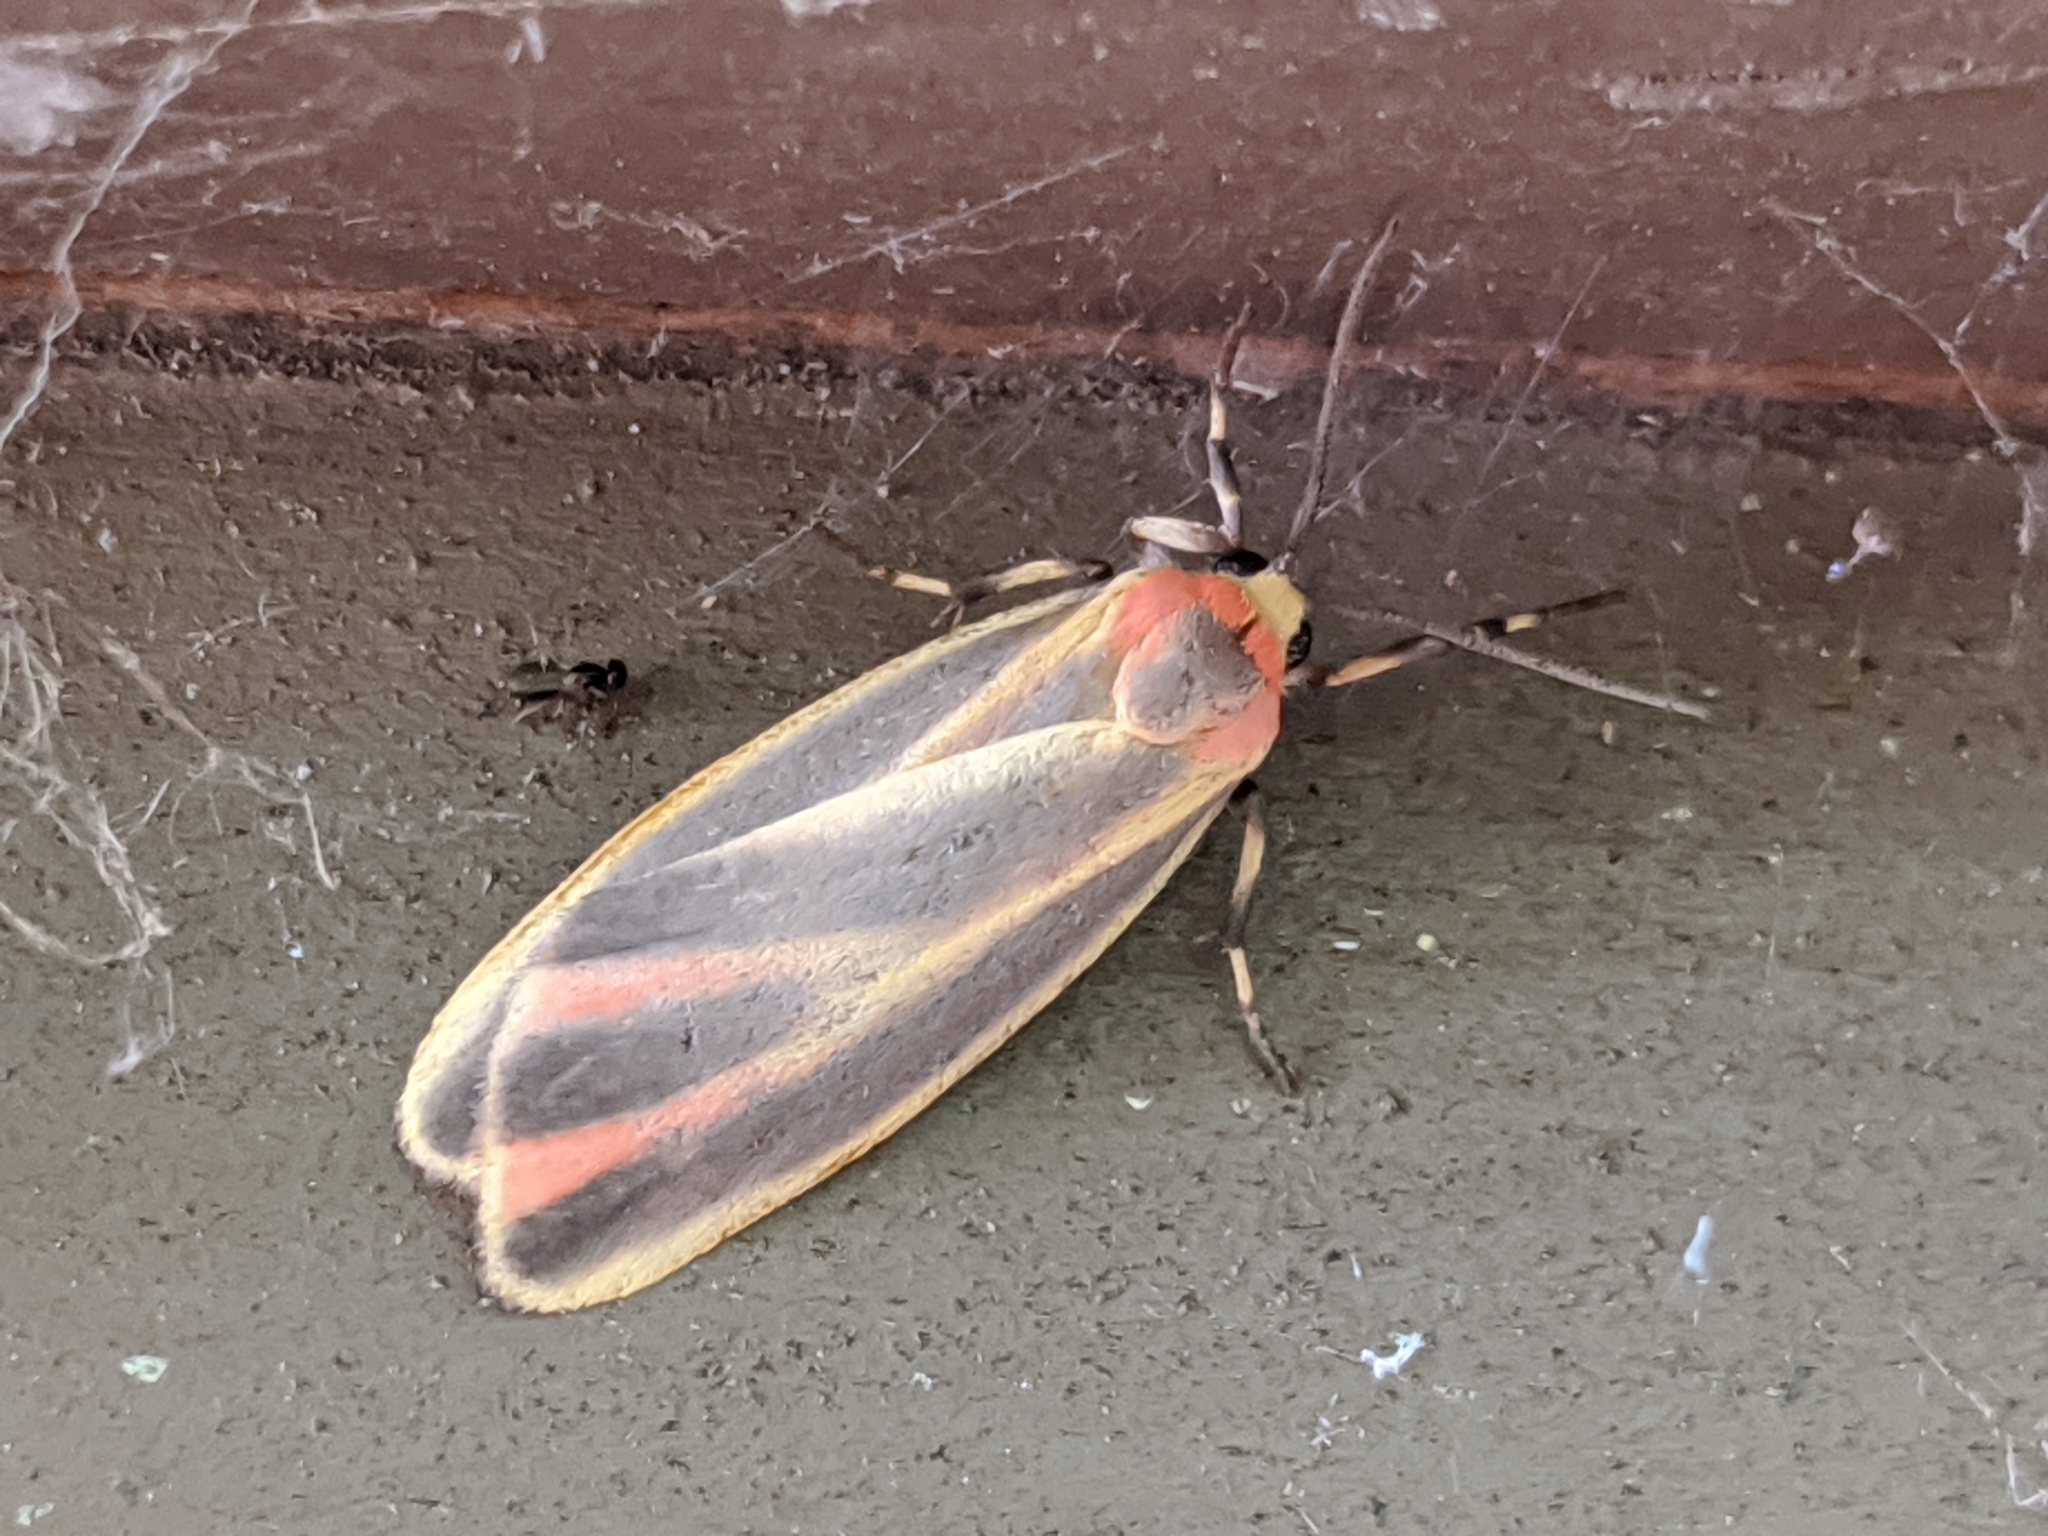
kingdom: Animalia
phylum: Arthropoda
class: Insecta
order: Lepidoptera
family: Erebidae
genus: Hypoprepia
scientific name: Hypoprepia fucosa
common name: Painted lichen moth
